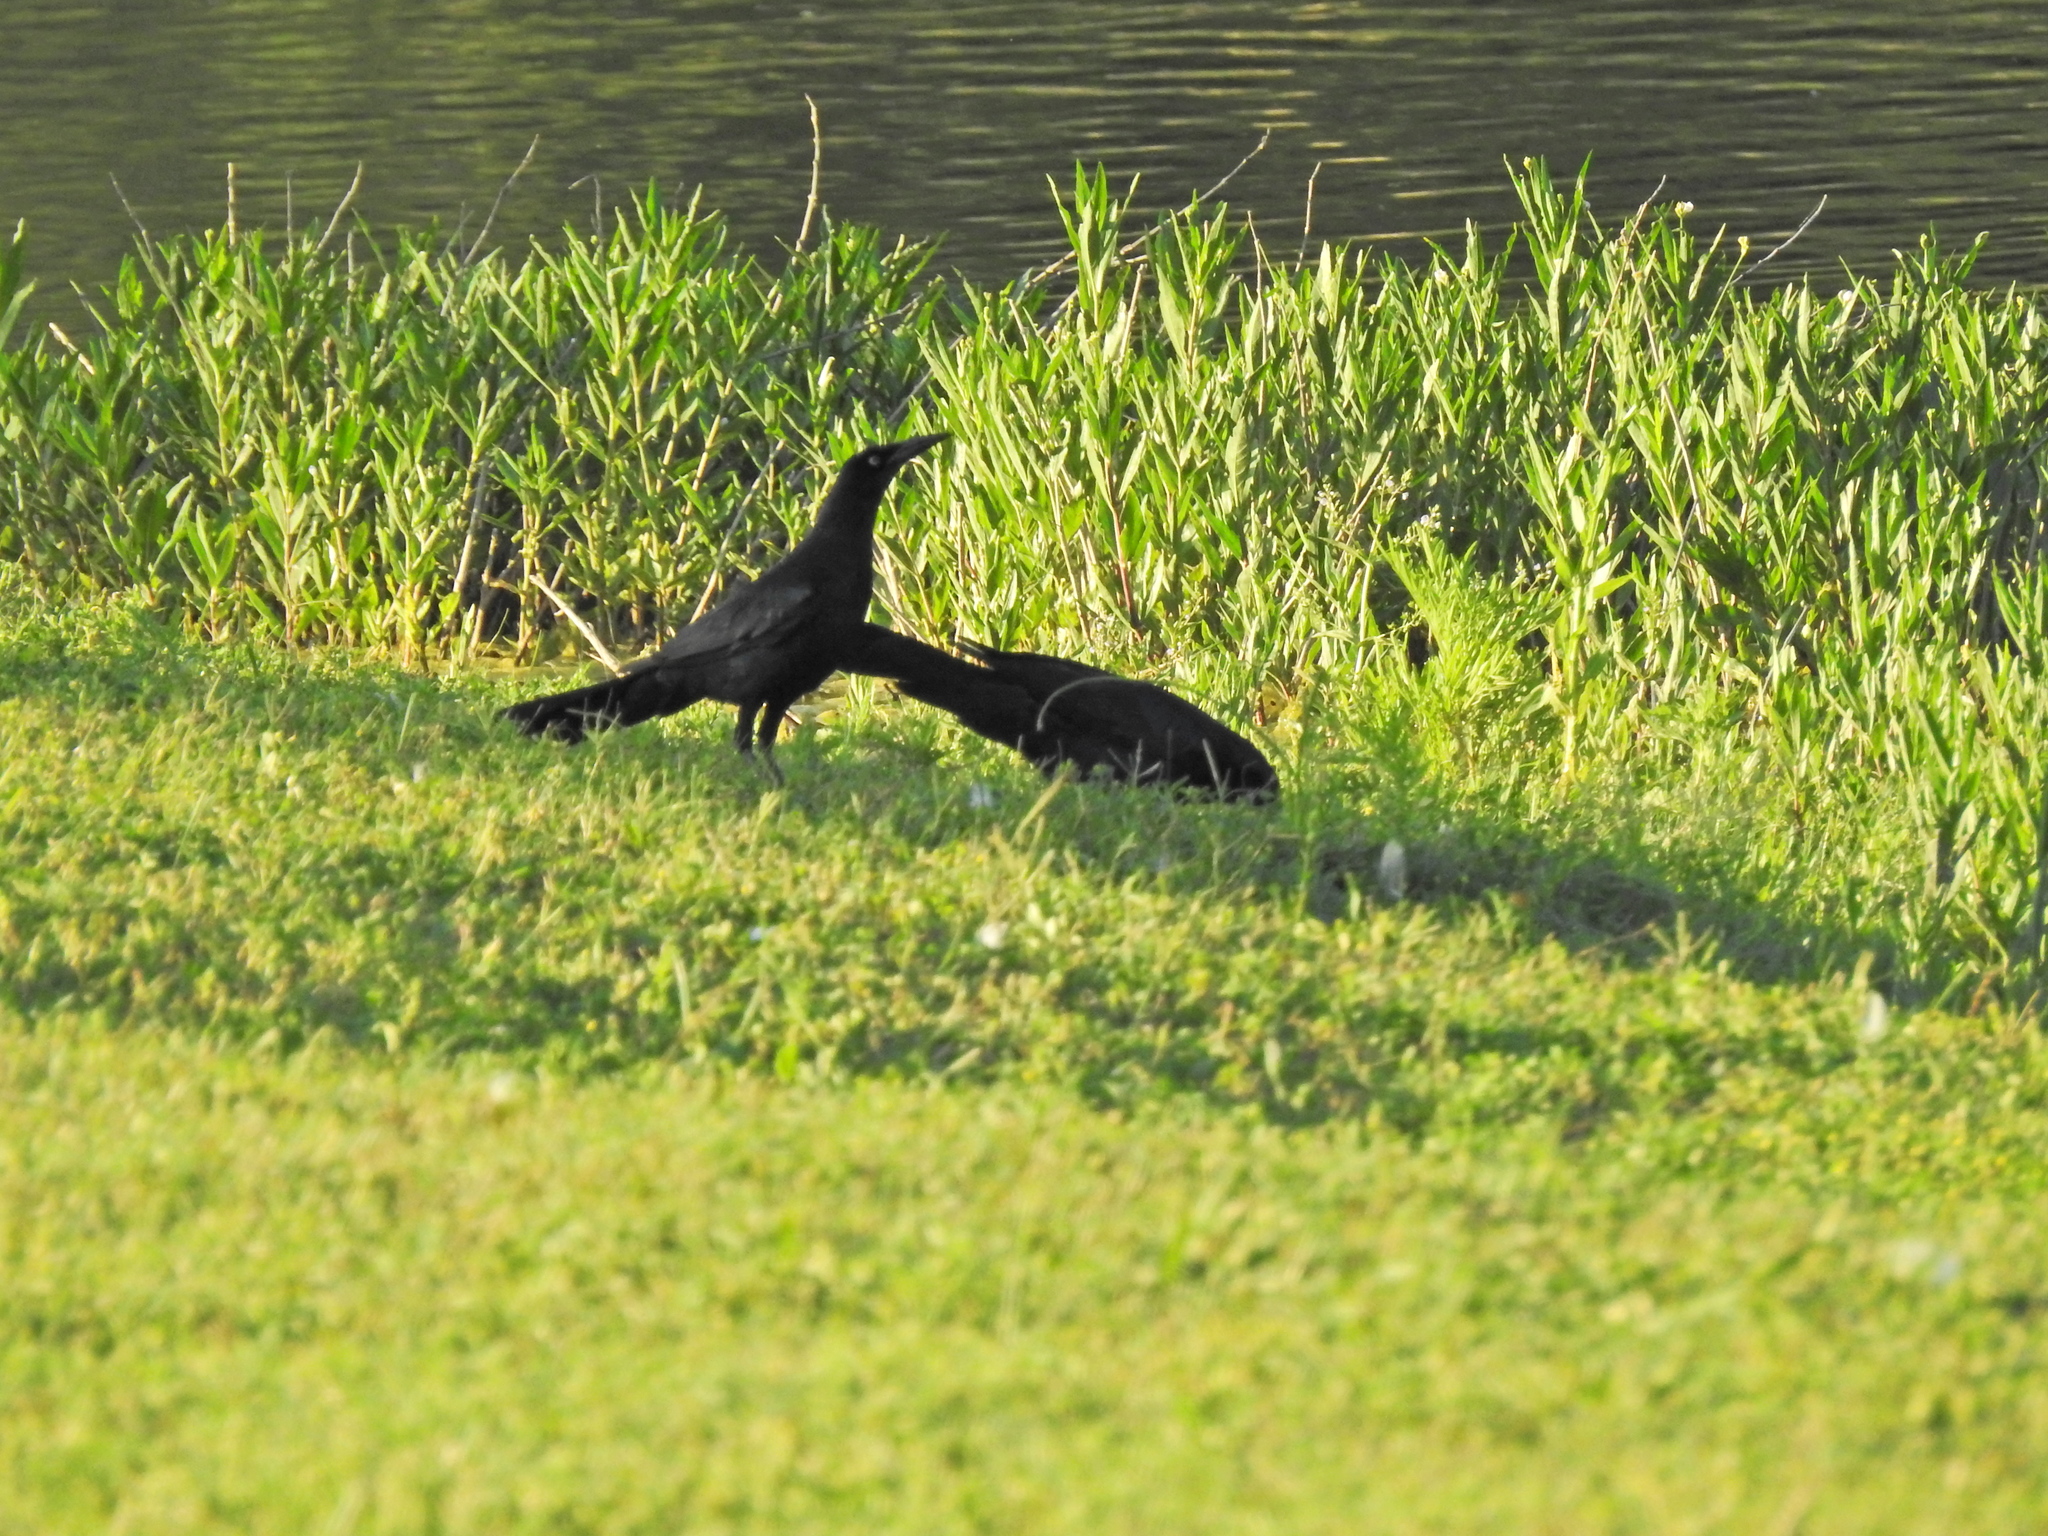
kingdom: Animalia
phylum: Chordata
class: Aves
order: Passeriformes
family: Icteridae
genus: Quiscalus
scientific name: Quiscalus mexicanus
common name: Great-tailed grackle
